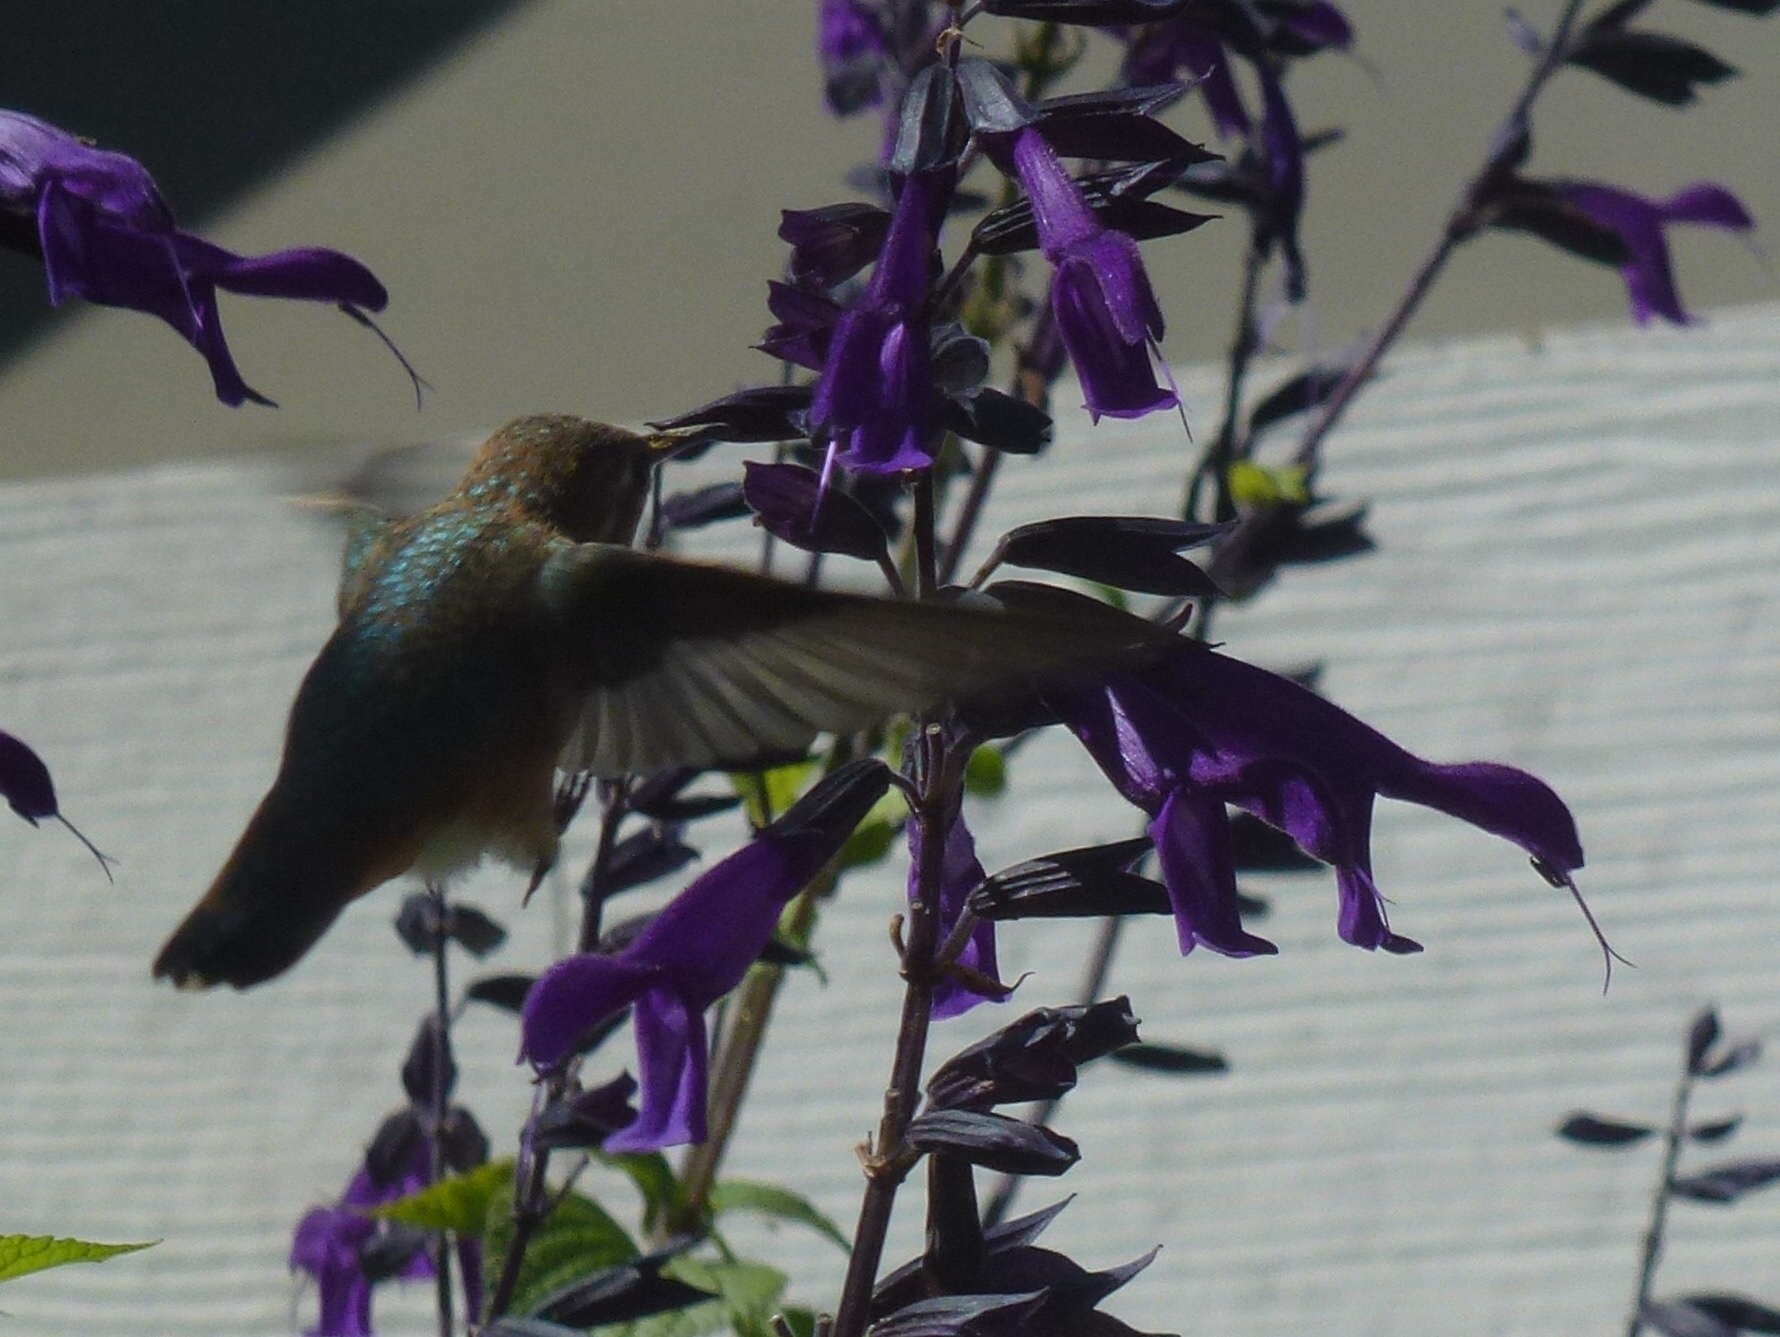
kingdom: Animalia
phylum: Chordata
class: Aves
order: Apodiformes
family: Trochilidae
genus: Selasphorus
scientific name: Selasphorus sasin
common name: Allen's hummingbird
